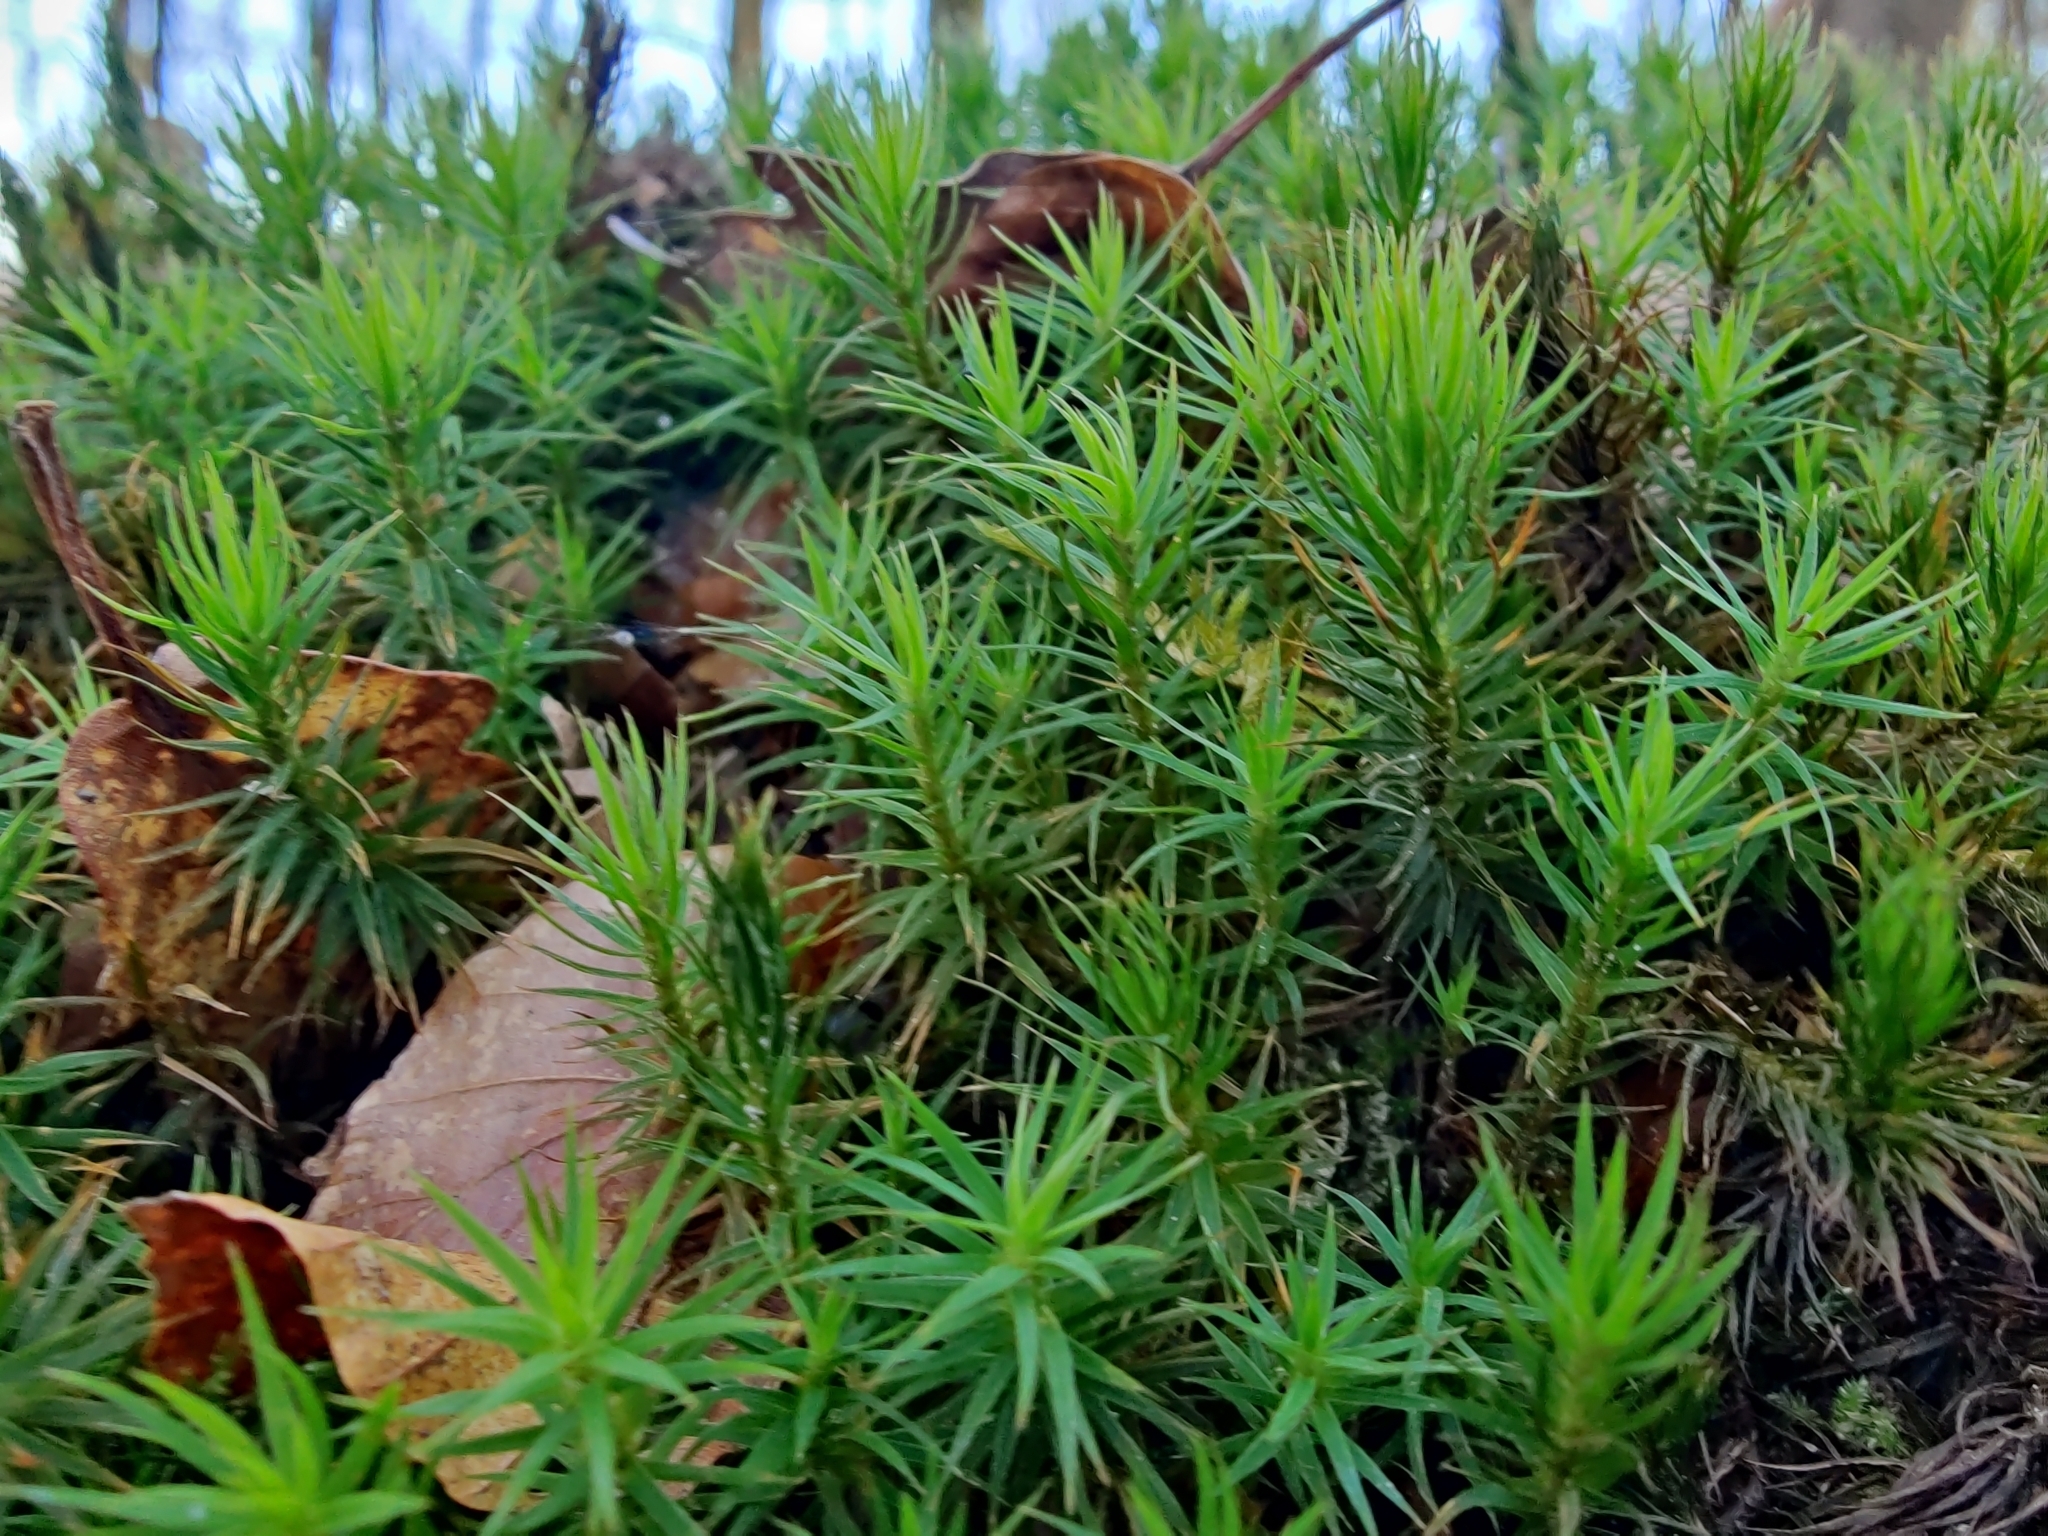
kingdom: Plantae
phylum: Bryophyta
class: Polytrichopsida
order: Polytrichales
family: Polytrichaceae
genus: Polytrichum
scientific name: Polytrichum formosum
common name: Bank haircap moss
